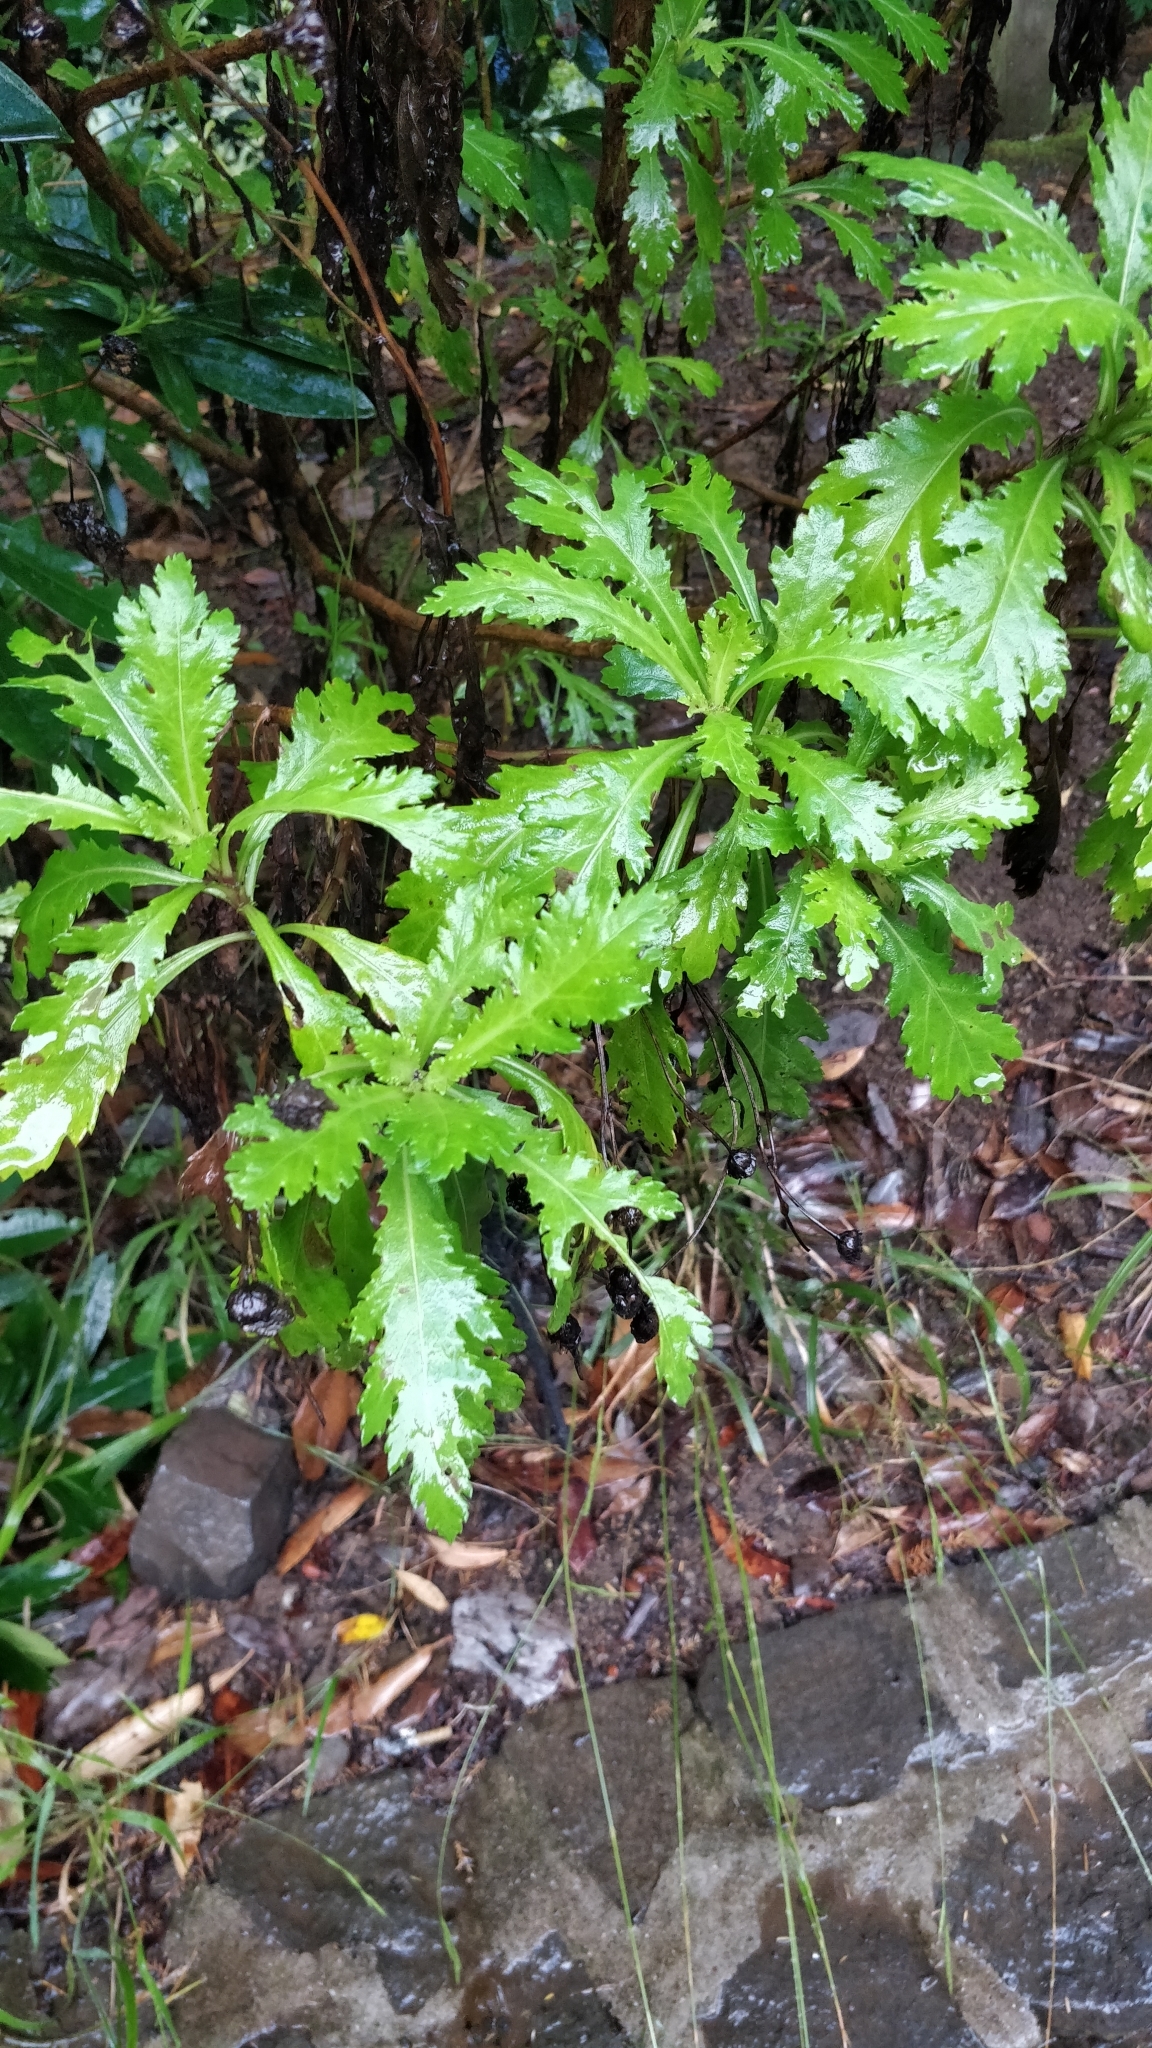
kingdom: Plantae
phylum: Tracheophyta
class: Magnoliopsida
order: Asterales
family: Asteraceae
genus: Argyranthemum
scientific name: Argyranthemum pinnatifidum
